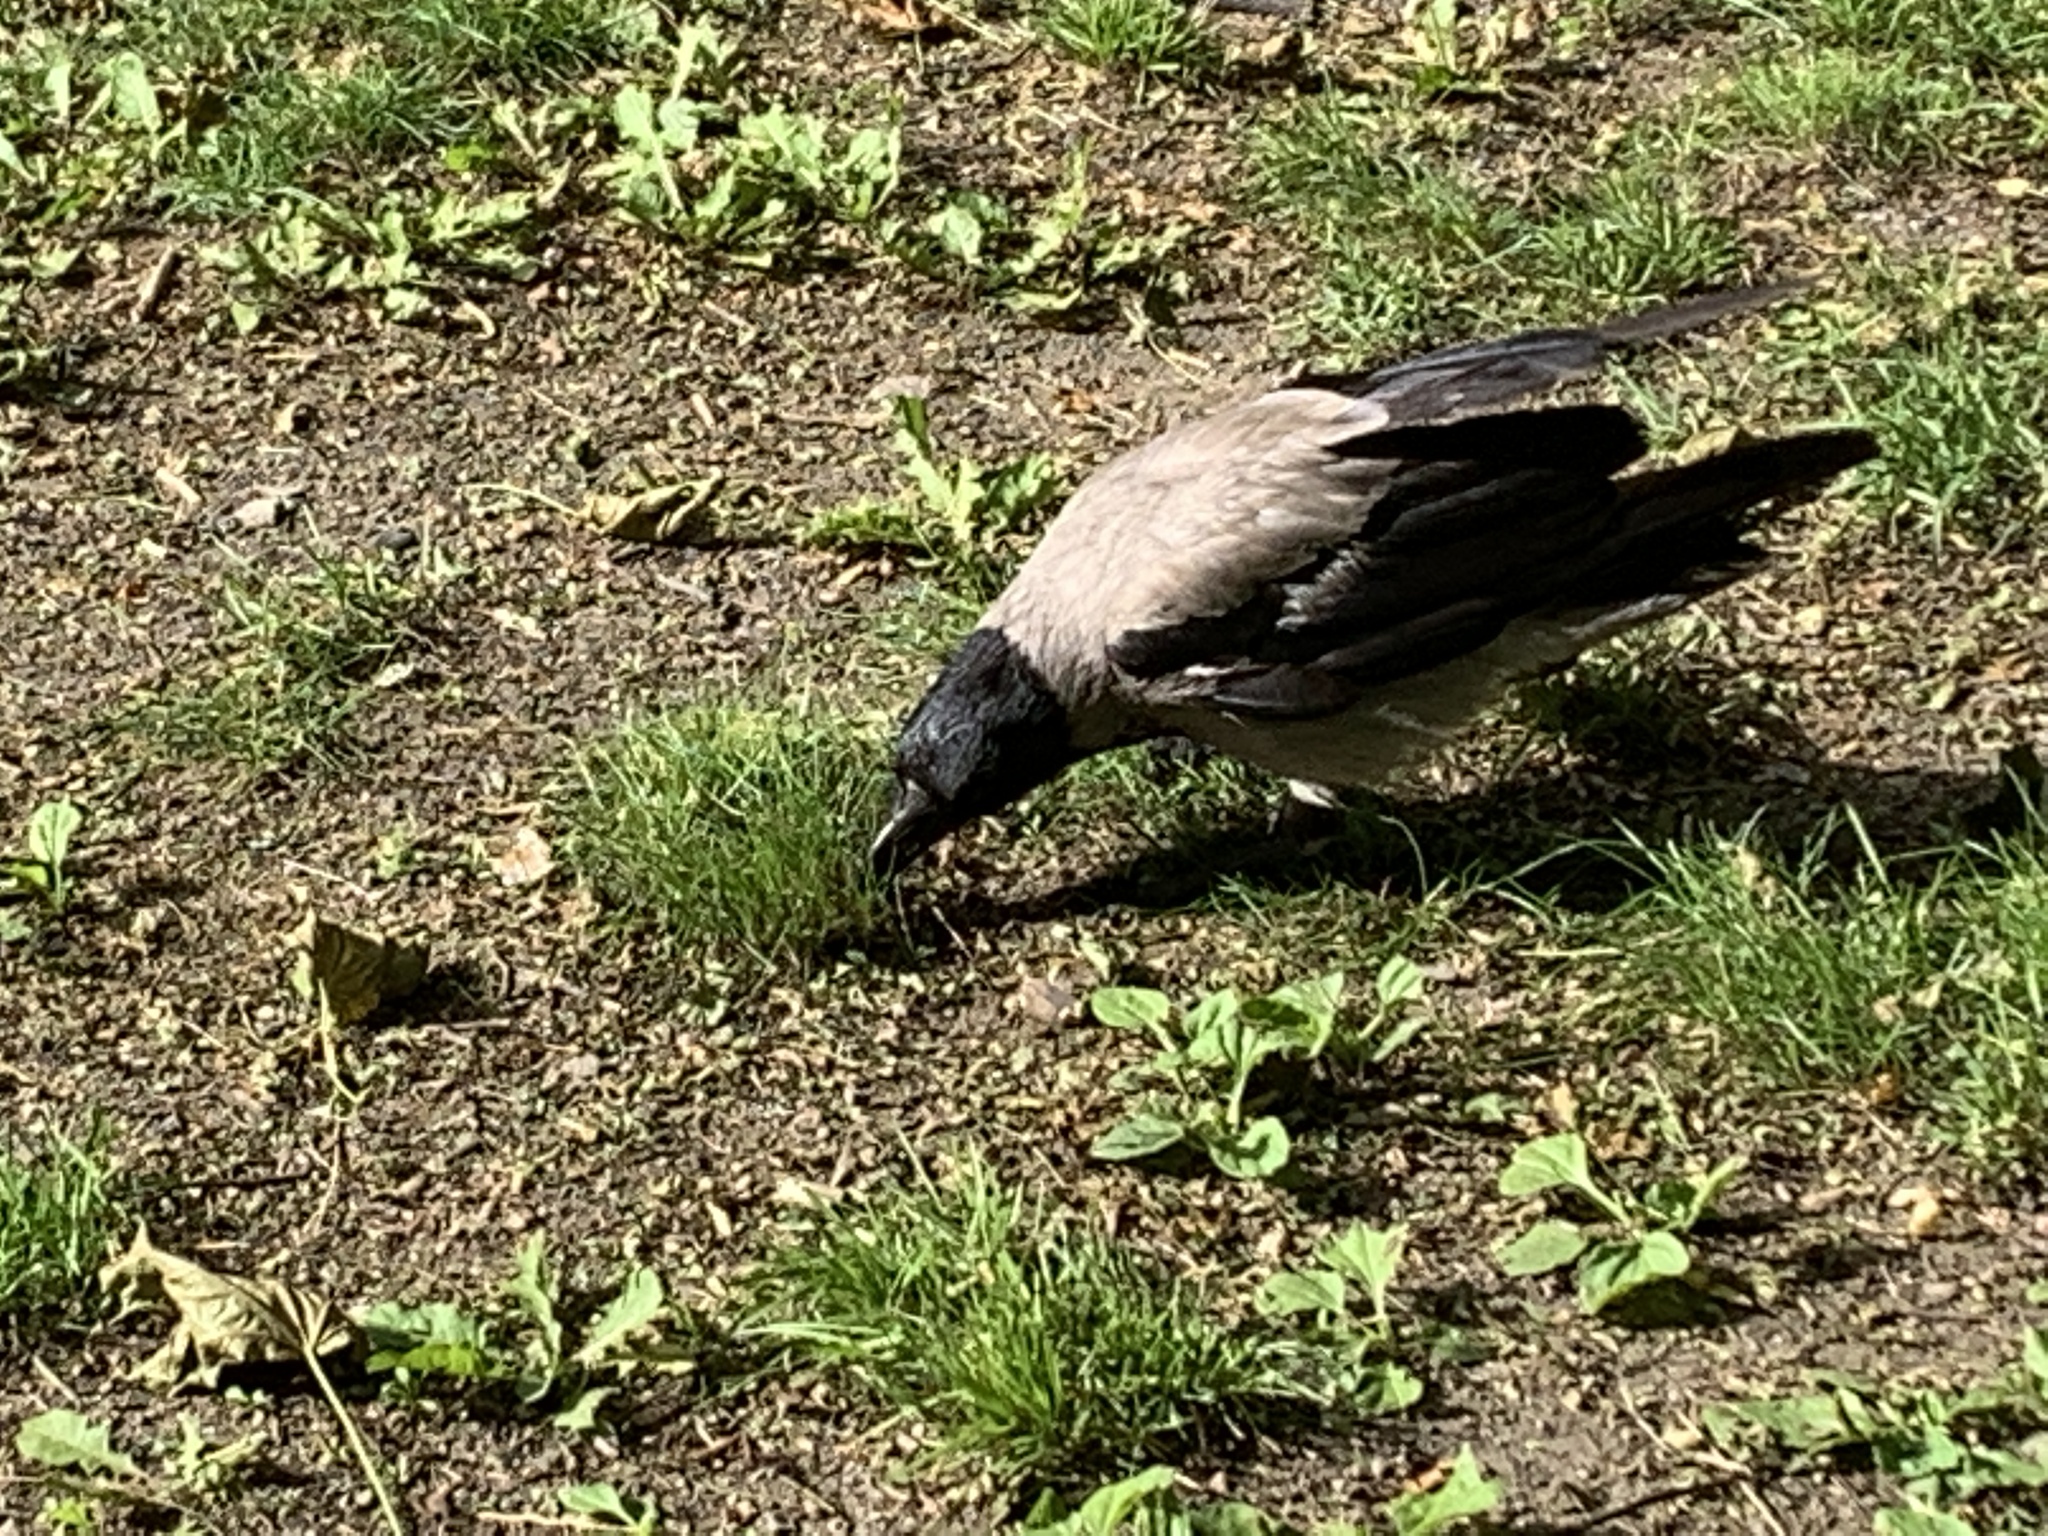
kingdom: Animalia
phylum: Chordata
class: Aves
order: Passeriformes
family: Corvidae
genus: Corvus
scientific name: Corvus cornix
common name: Hooded crow
